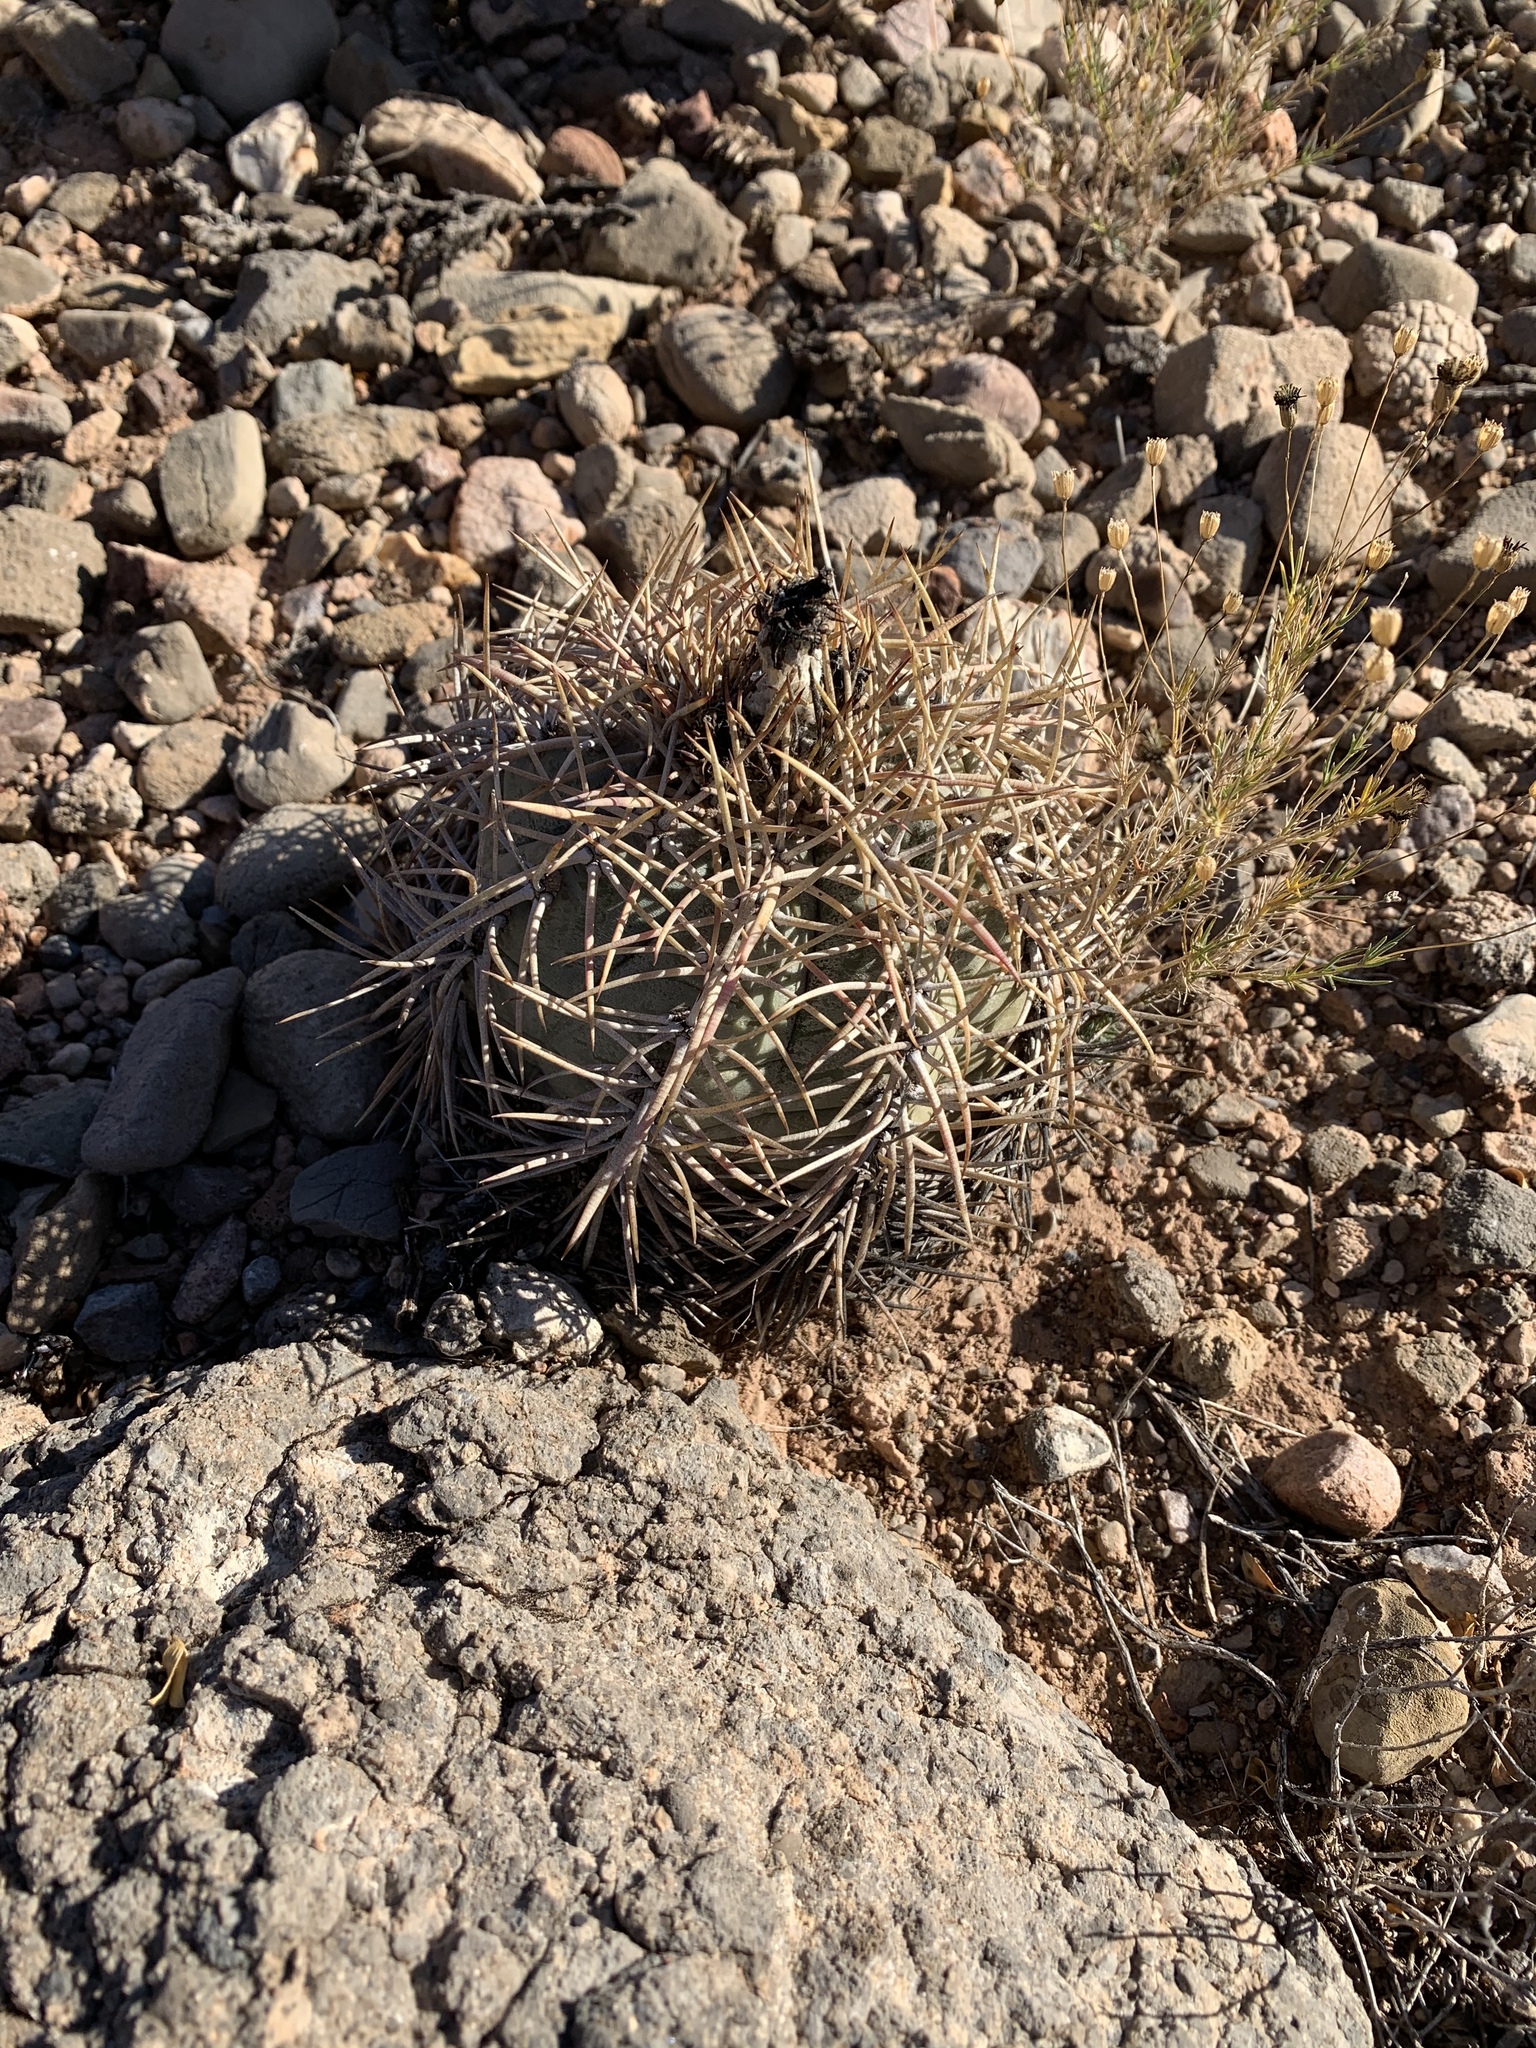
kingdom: Plantae
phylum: Tracheophyta
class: Magnoliopsida
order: Caryophyllales
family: Cactaceae
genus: Echinocactus
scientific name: Echinocactus horizonthalonius
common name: Devilshead
